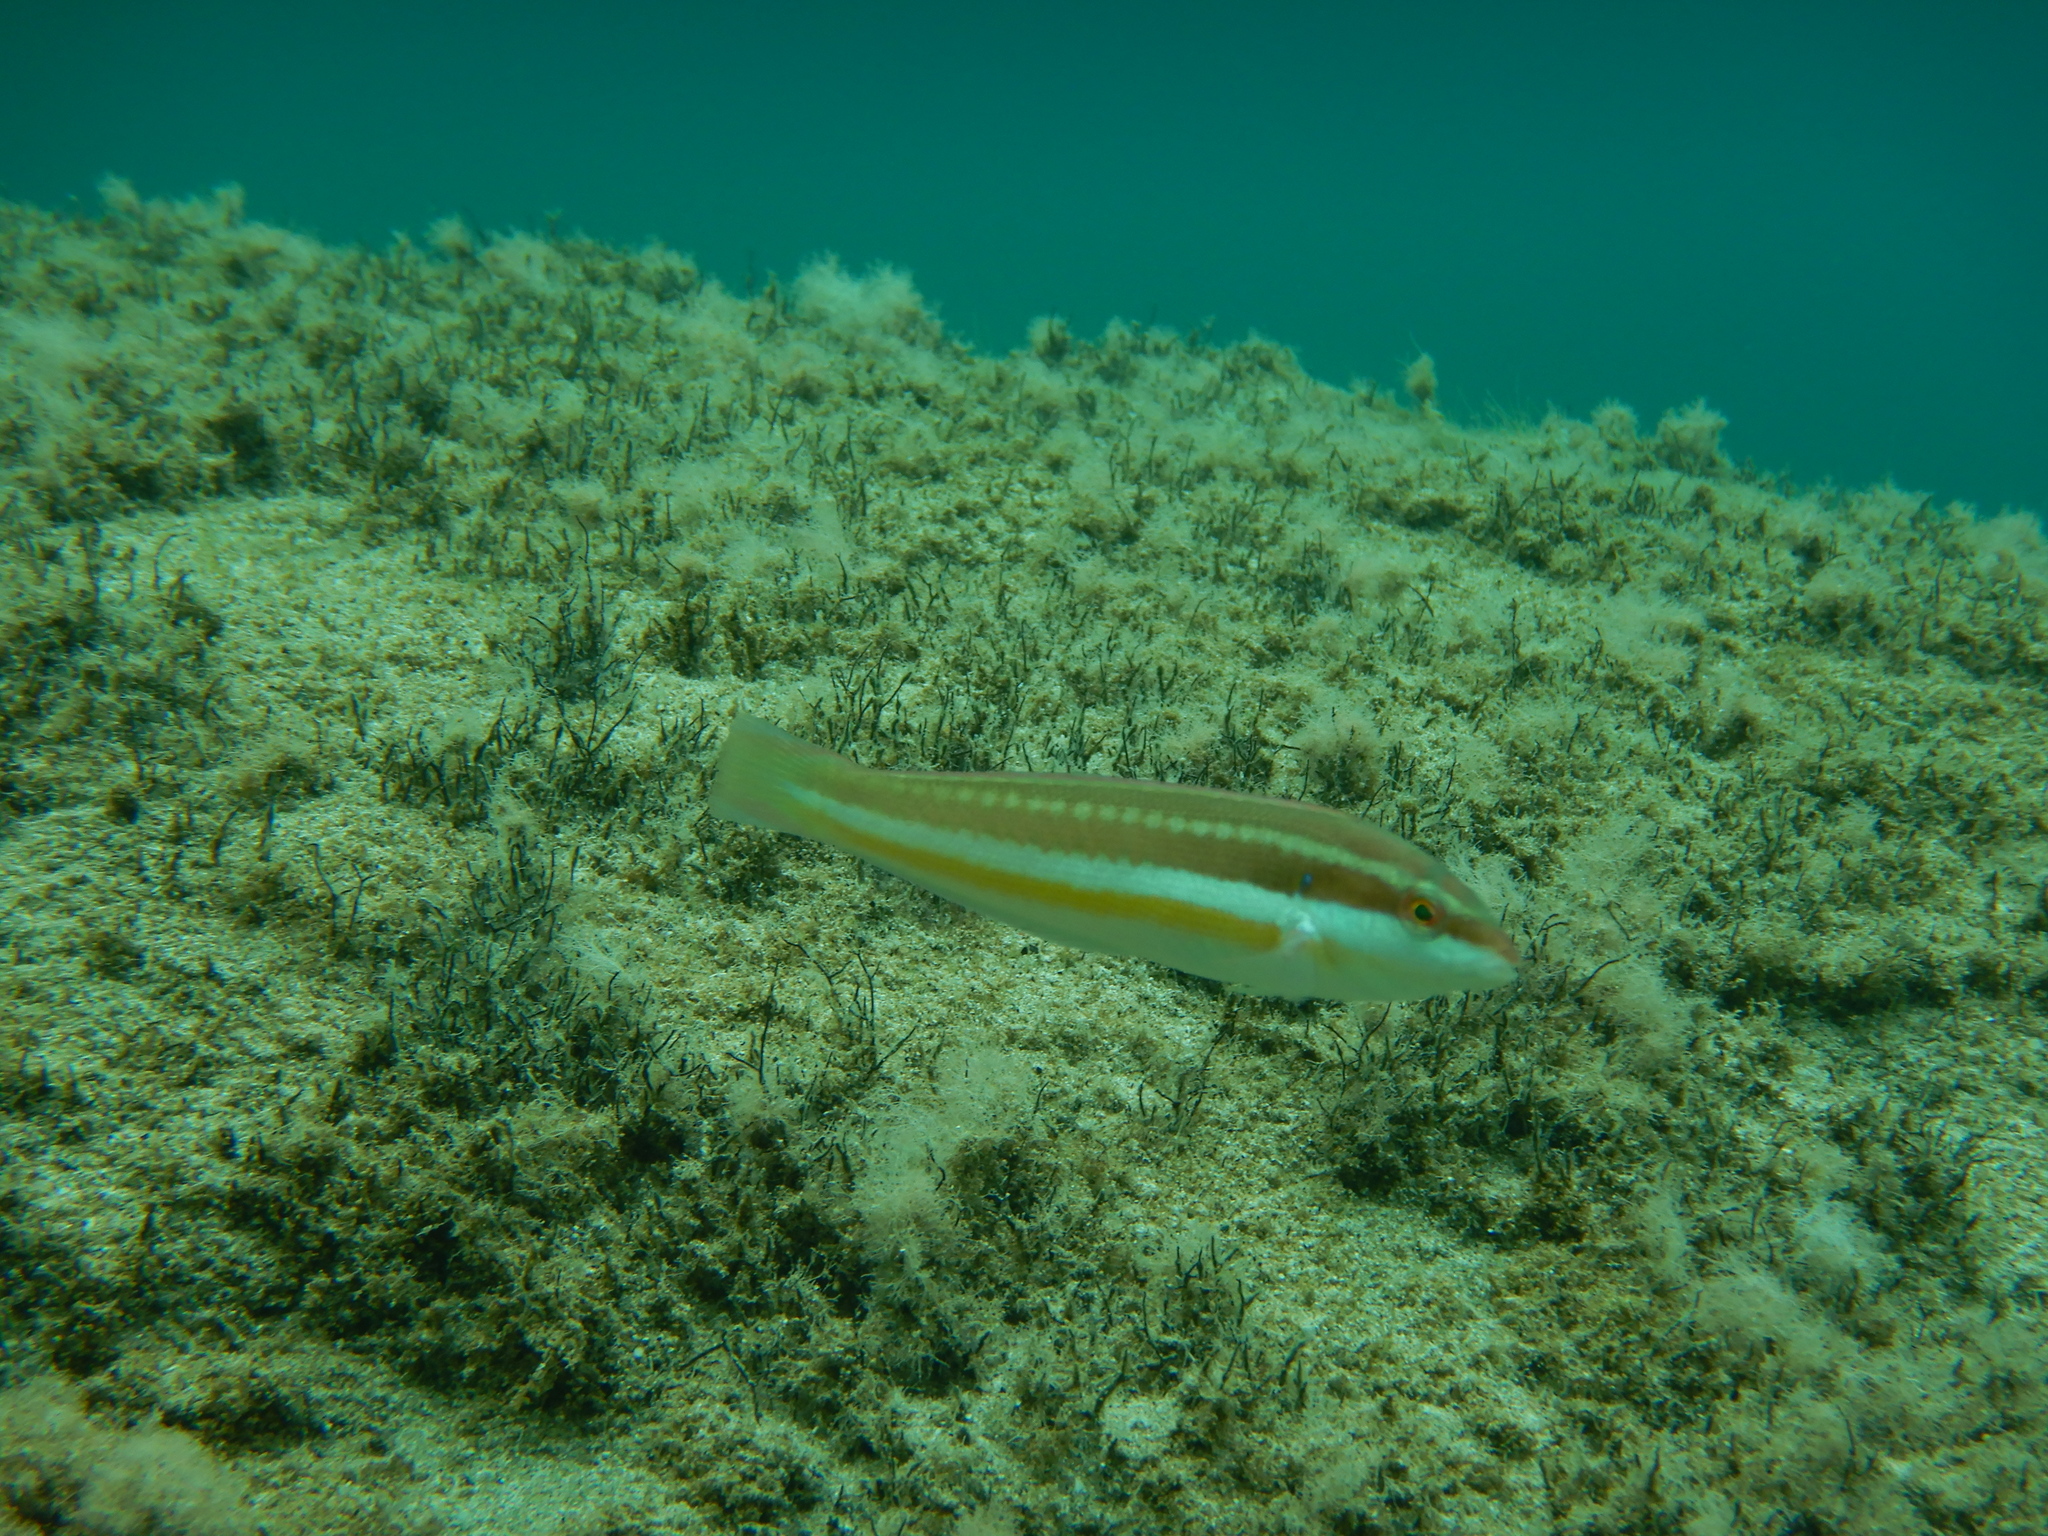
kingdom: Animalia
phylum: Chordata
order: Perciformes
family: Labridae
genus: Coris
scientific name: Coris julis
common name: Rainbow wrasse
